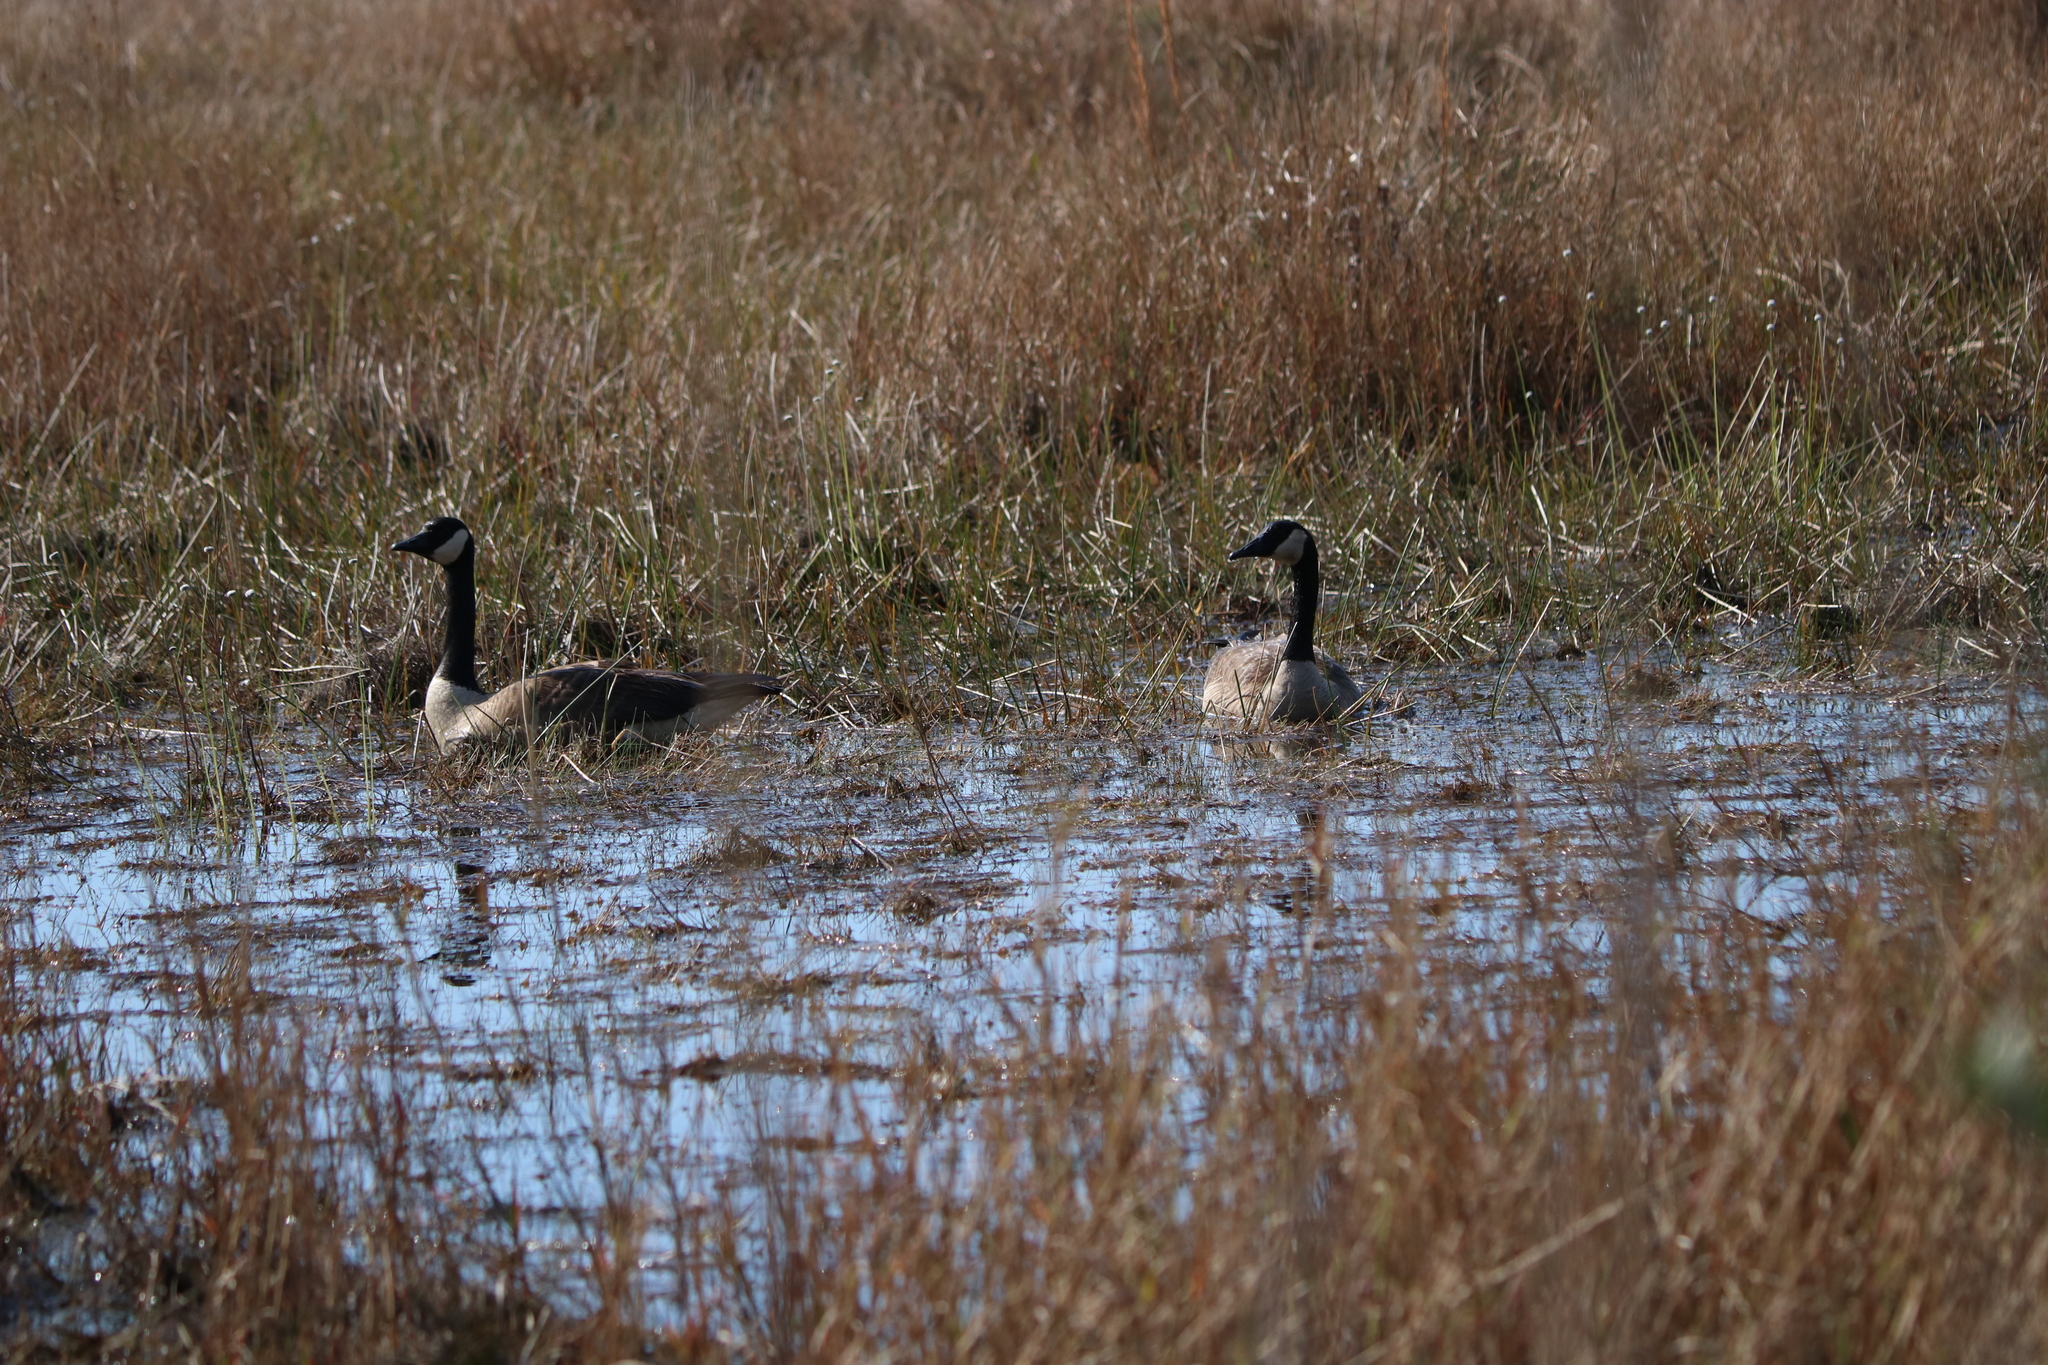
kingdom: Animalia
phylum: Chordata
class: Aves
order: Anseriformes
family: Anatidae
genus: Branta
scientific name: Branta canadensis
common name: Canada goose
